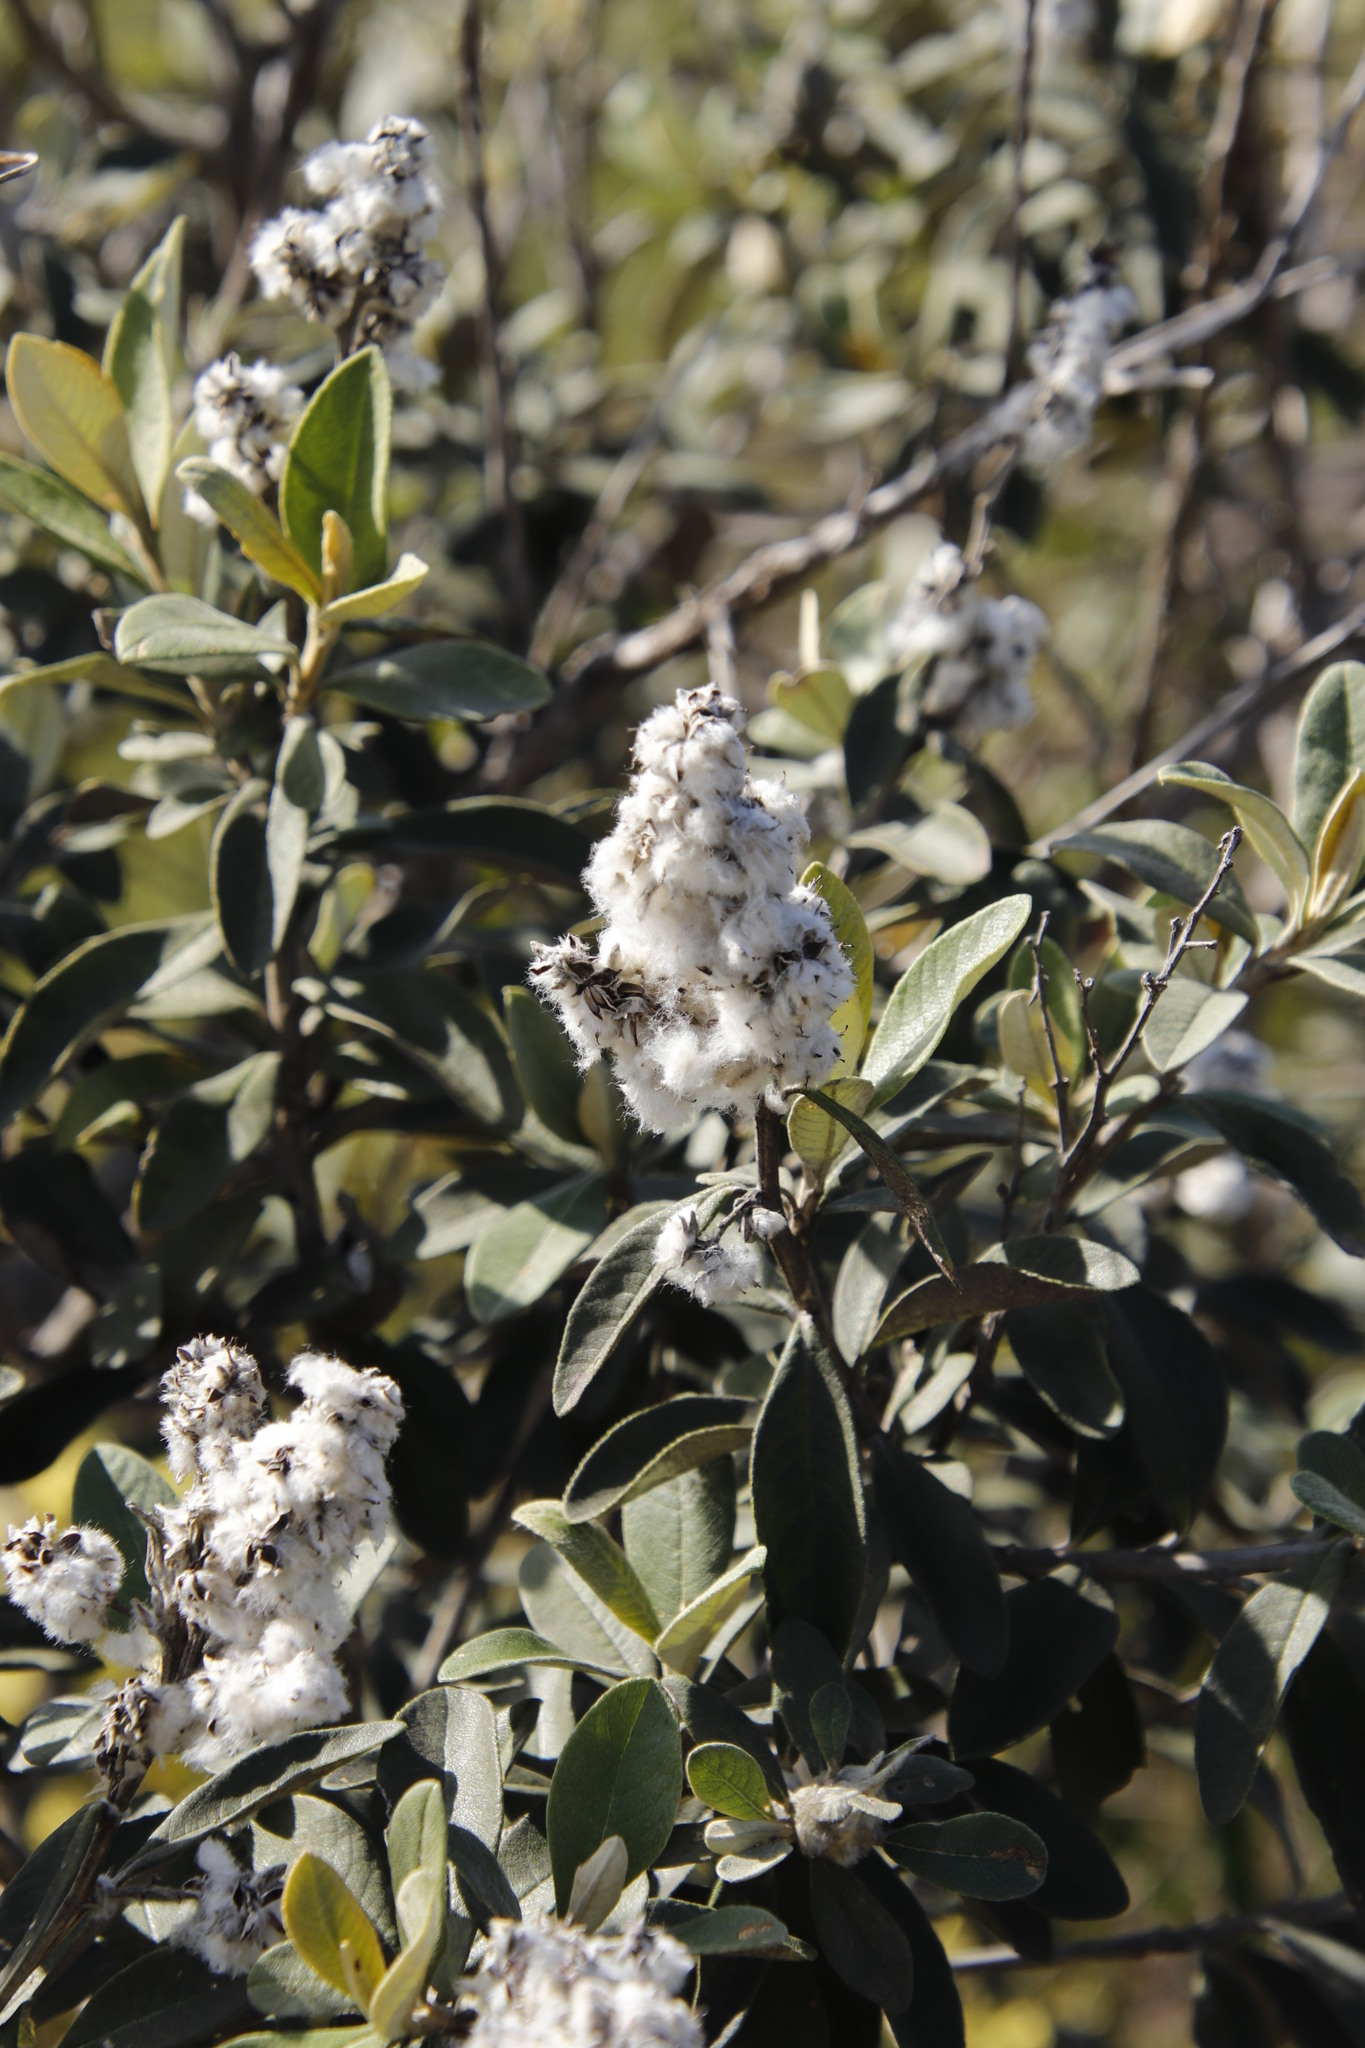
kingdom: Plantae
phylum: Tracheophyta
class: Magnoliopsida
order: Asterales
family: Asteraceae
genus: Tarchonanthus
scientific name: Tarchonanthus littoralis
